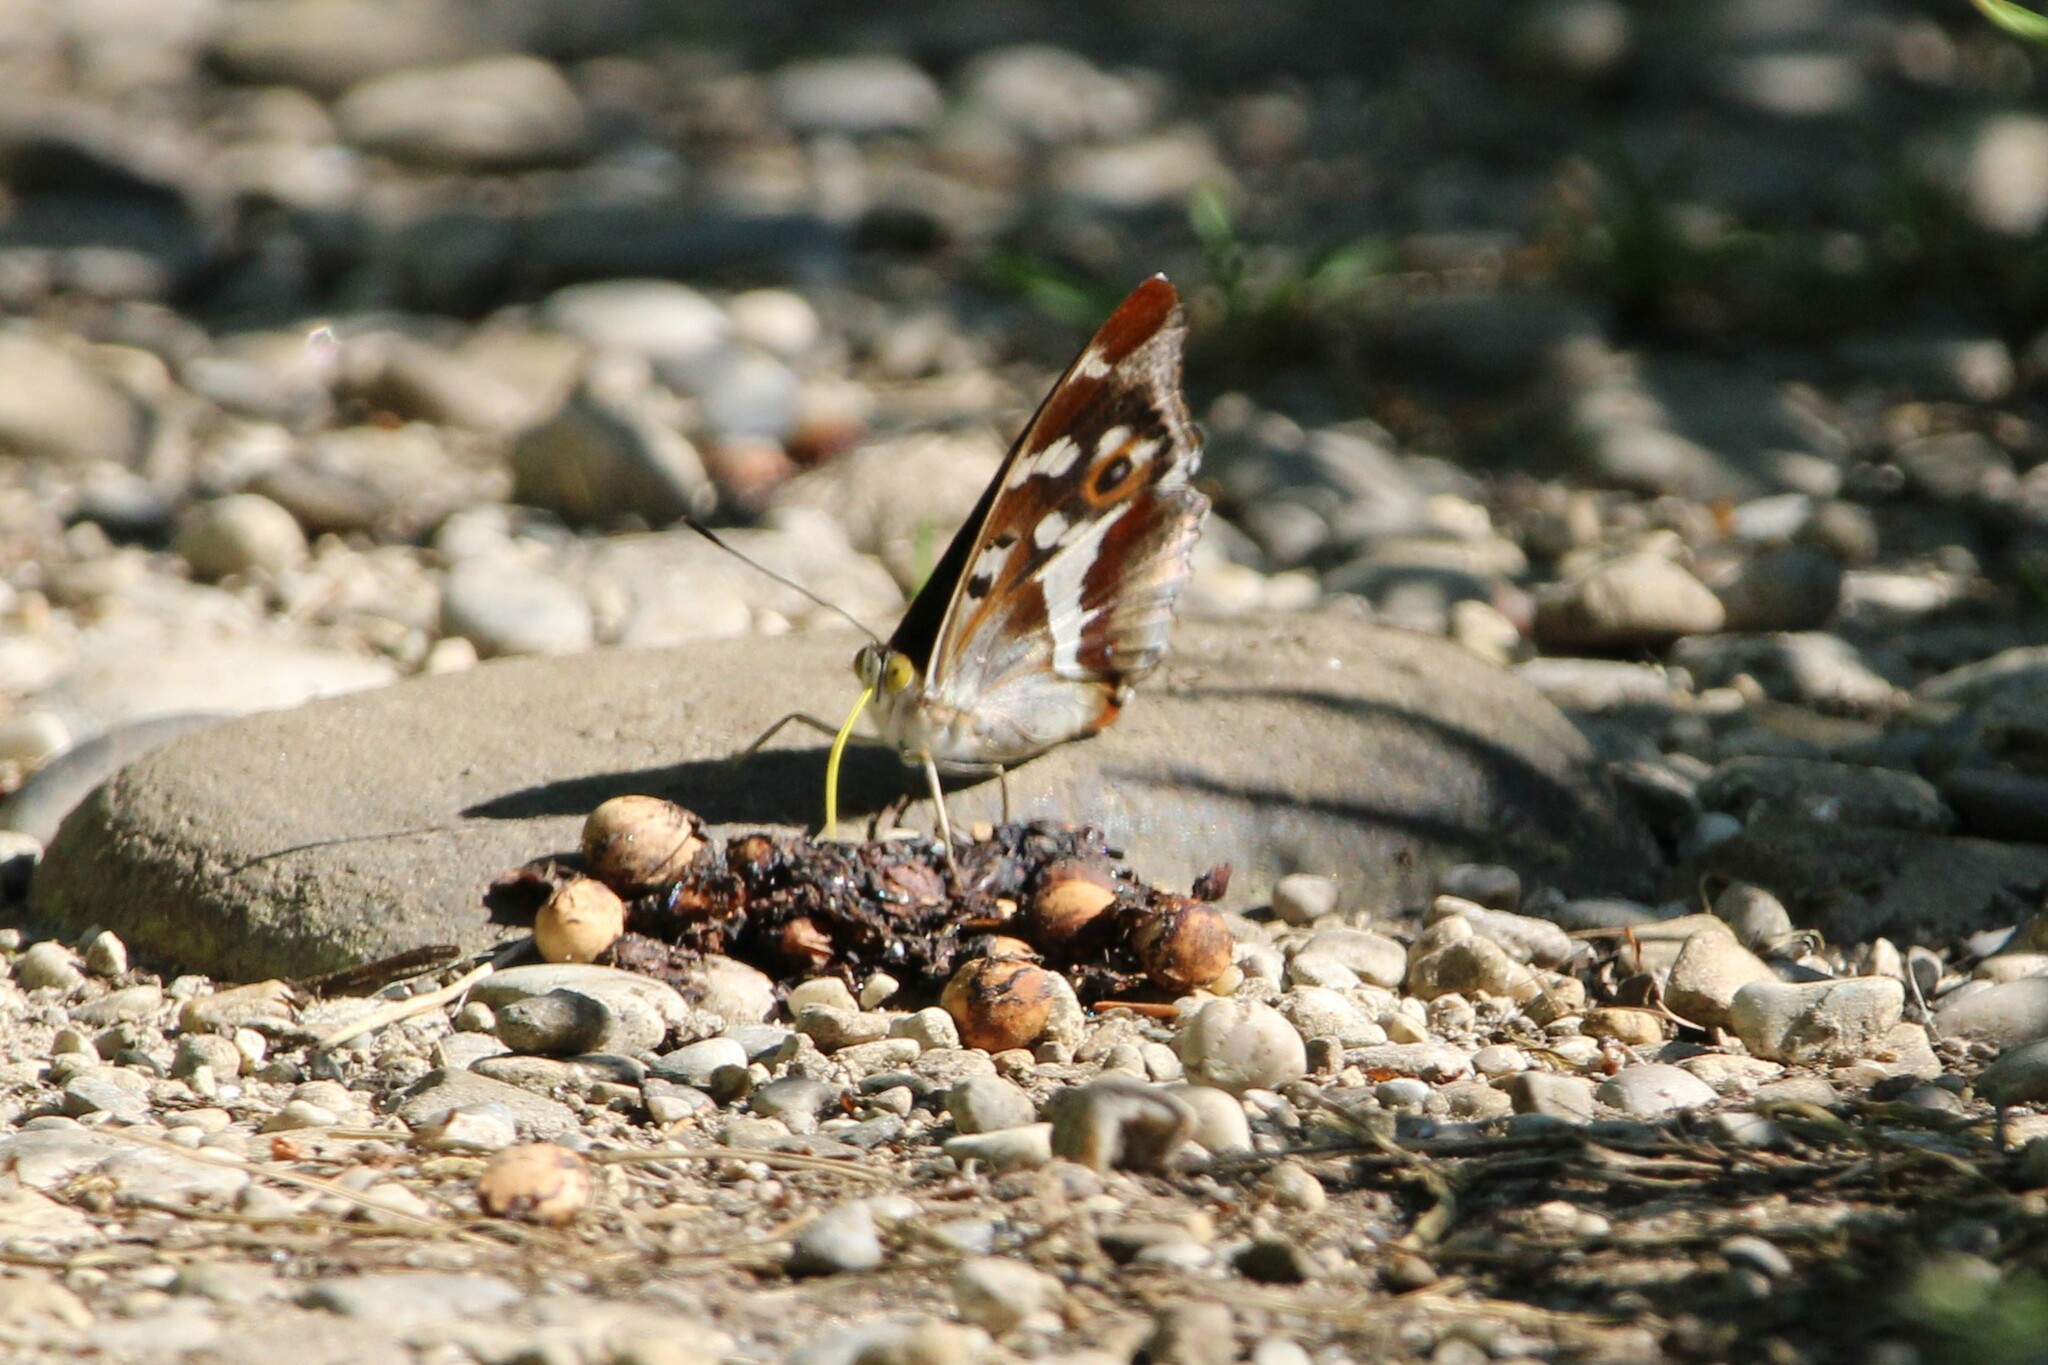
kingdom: Animalia
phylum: Arthropoda
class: Insecta
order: Lepidoptera
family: Nymphalidae
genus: Apatura
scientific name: Apatura iris
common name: Purple emperor
